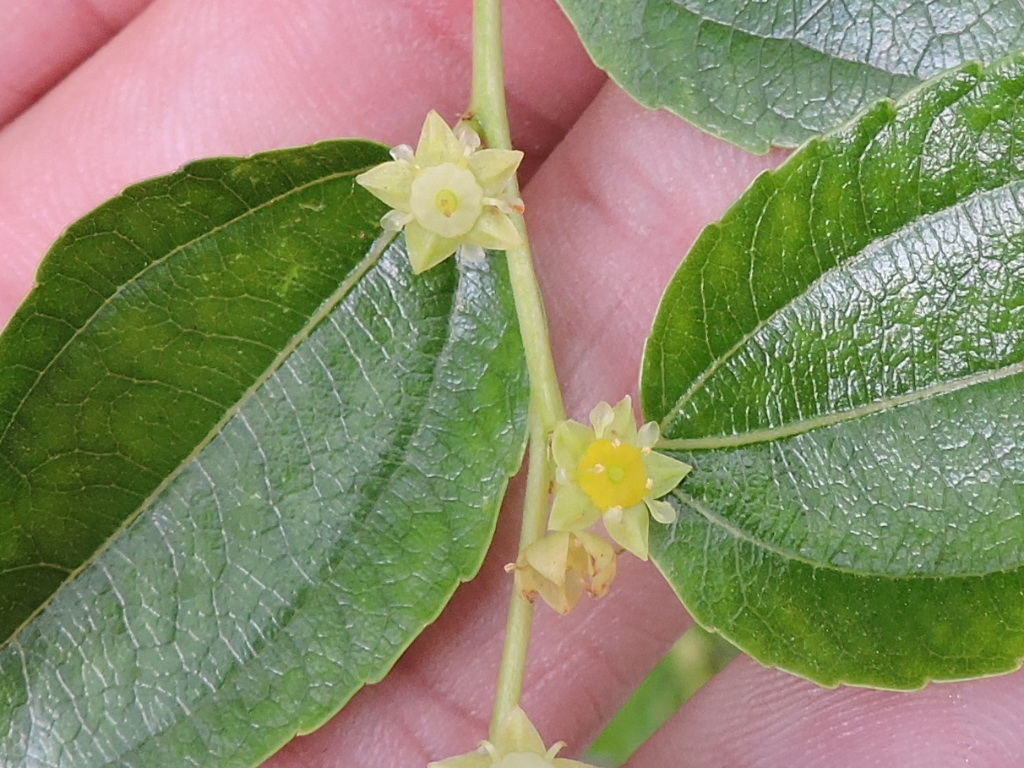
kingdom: Plantae
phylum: Tracheophyta
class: Magnoliopsida
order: Rosales
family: Rhamnaceae
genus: Ziziphus
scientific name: Ziziphus jujuba
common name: Jujube red date
